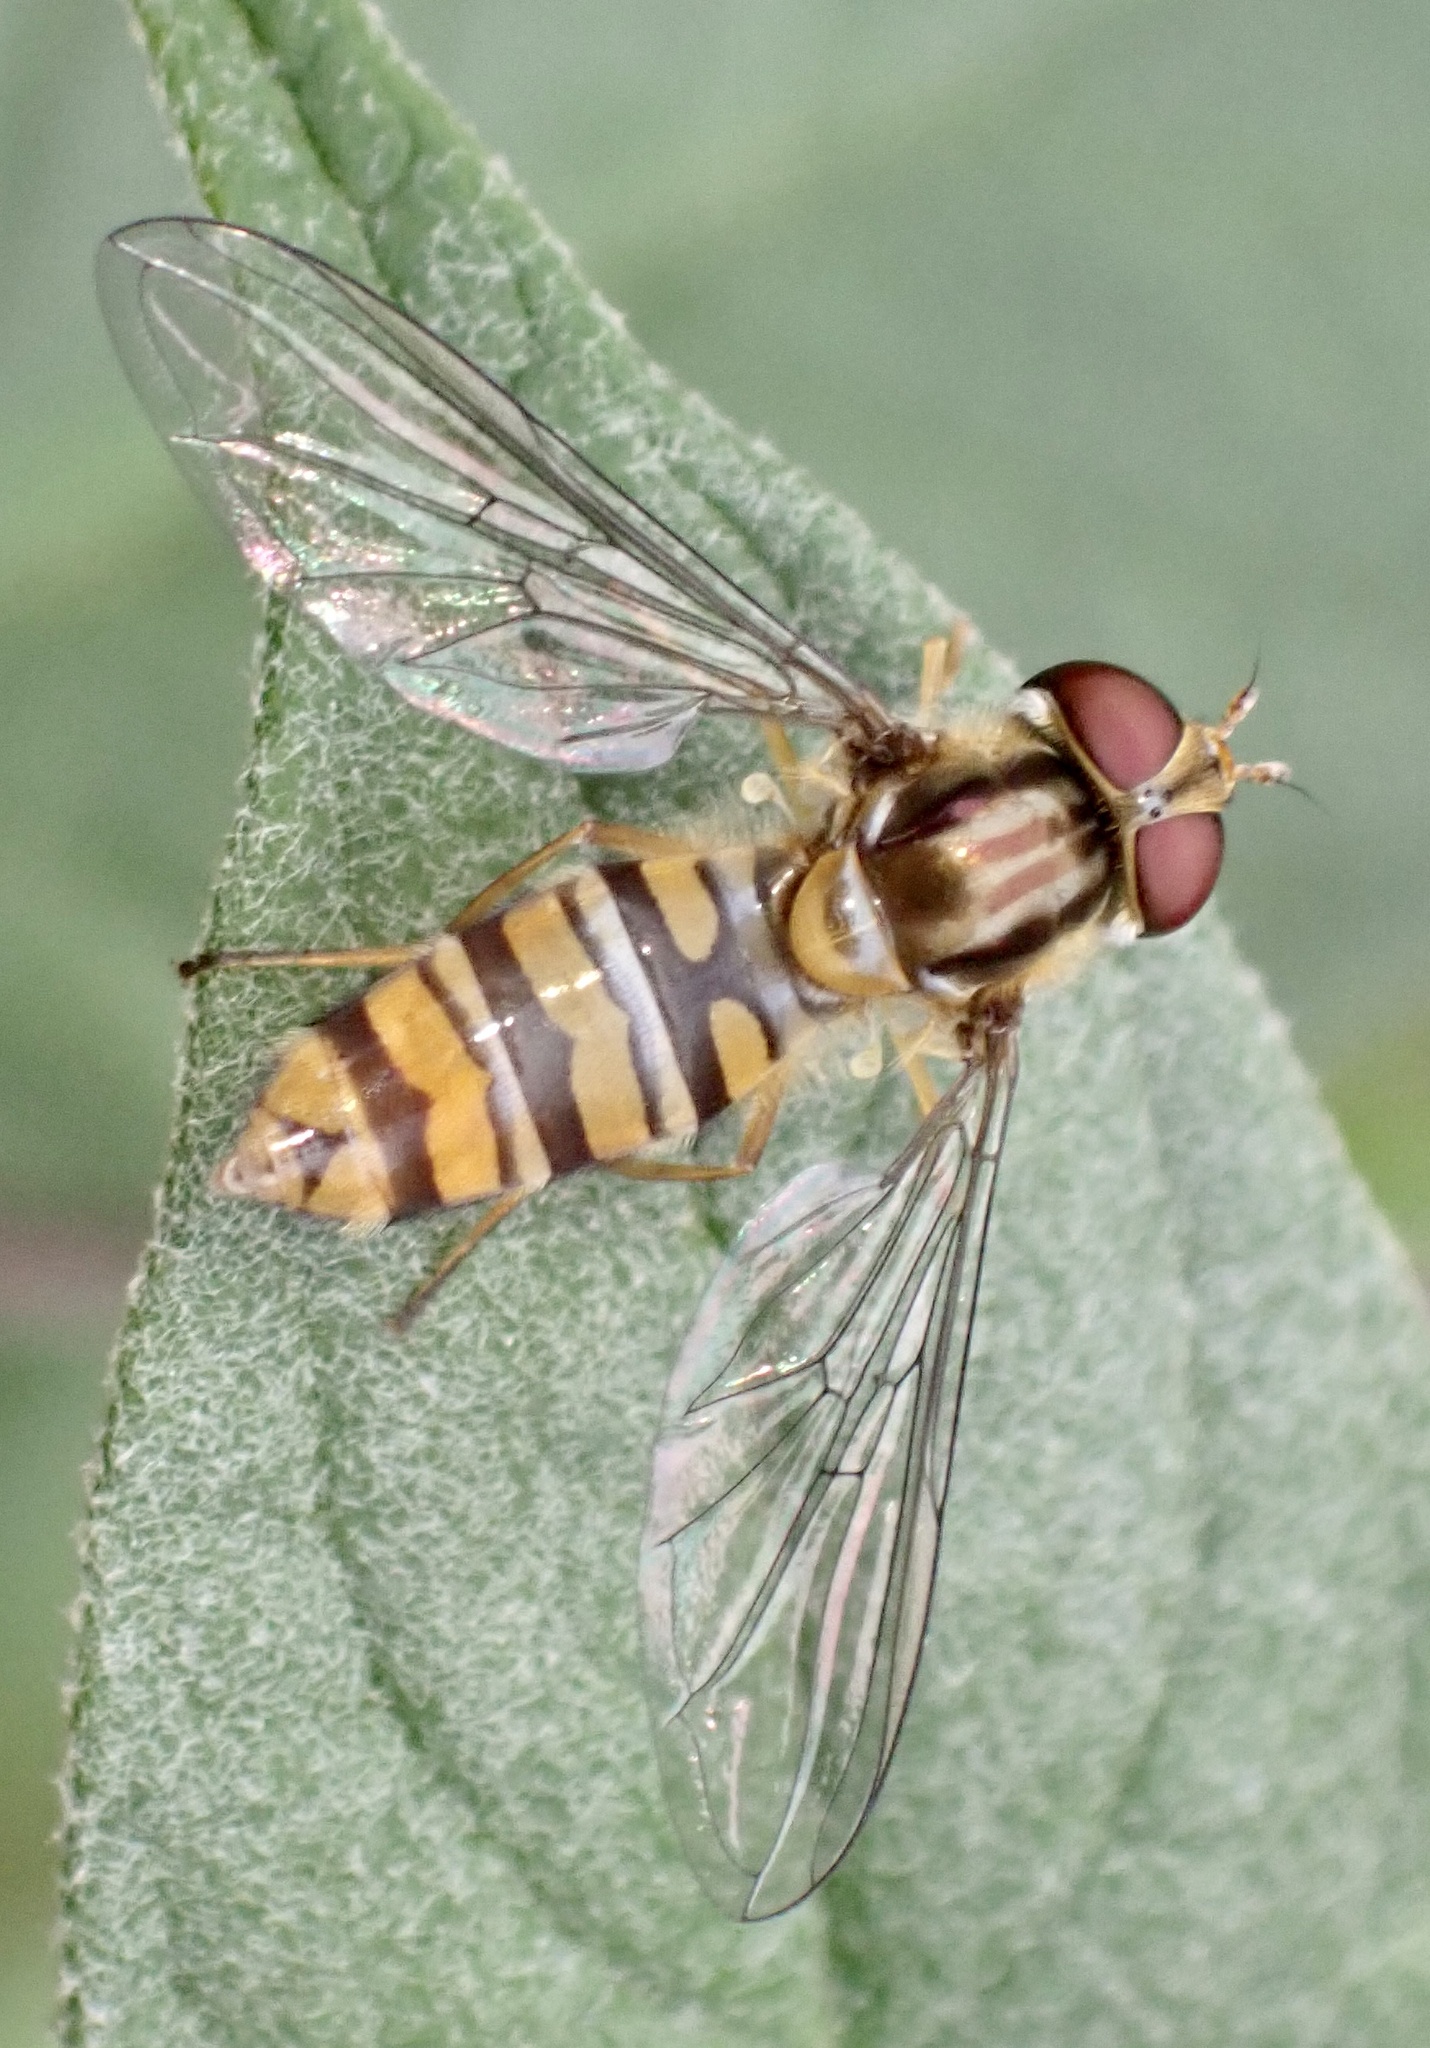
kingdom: Animalia
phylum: Arthropoda
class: Insecta
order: Diptera
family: Syrphidae
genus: Episyrphus
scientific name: Episyrphus balteatus
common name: Marmalade hoverfly
